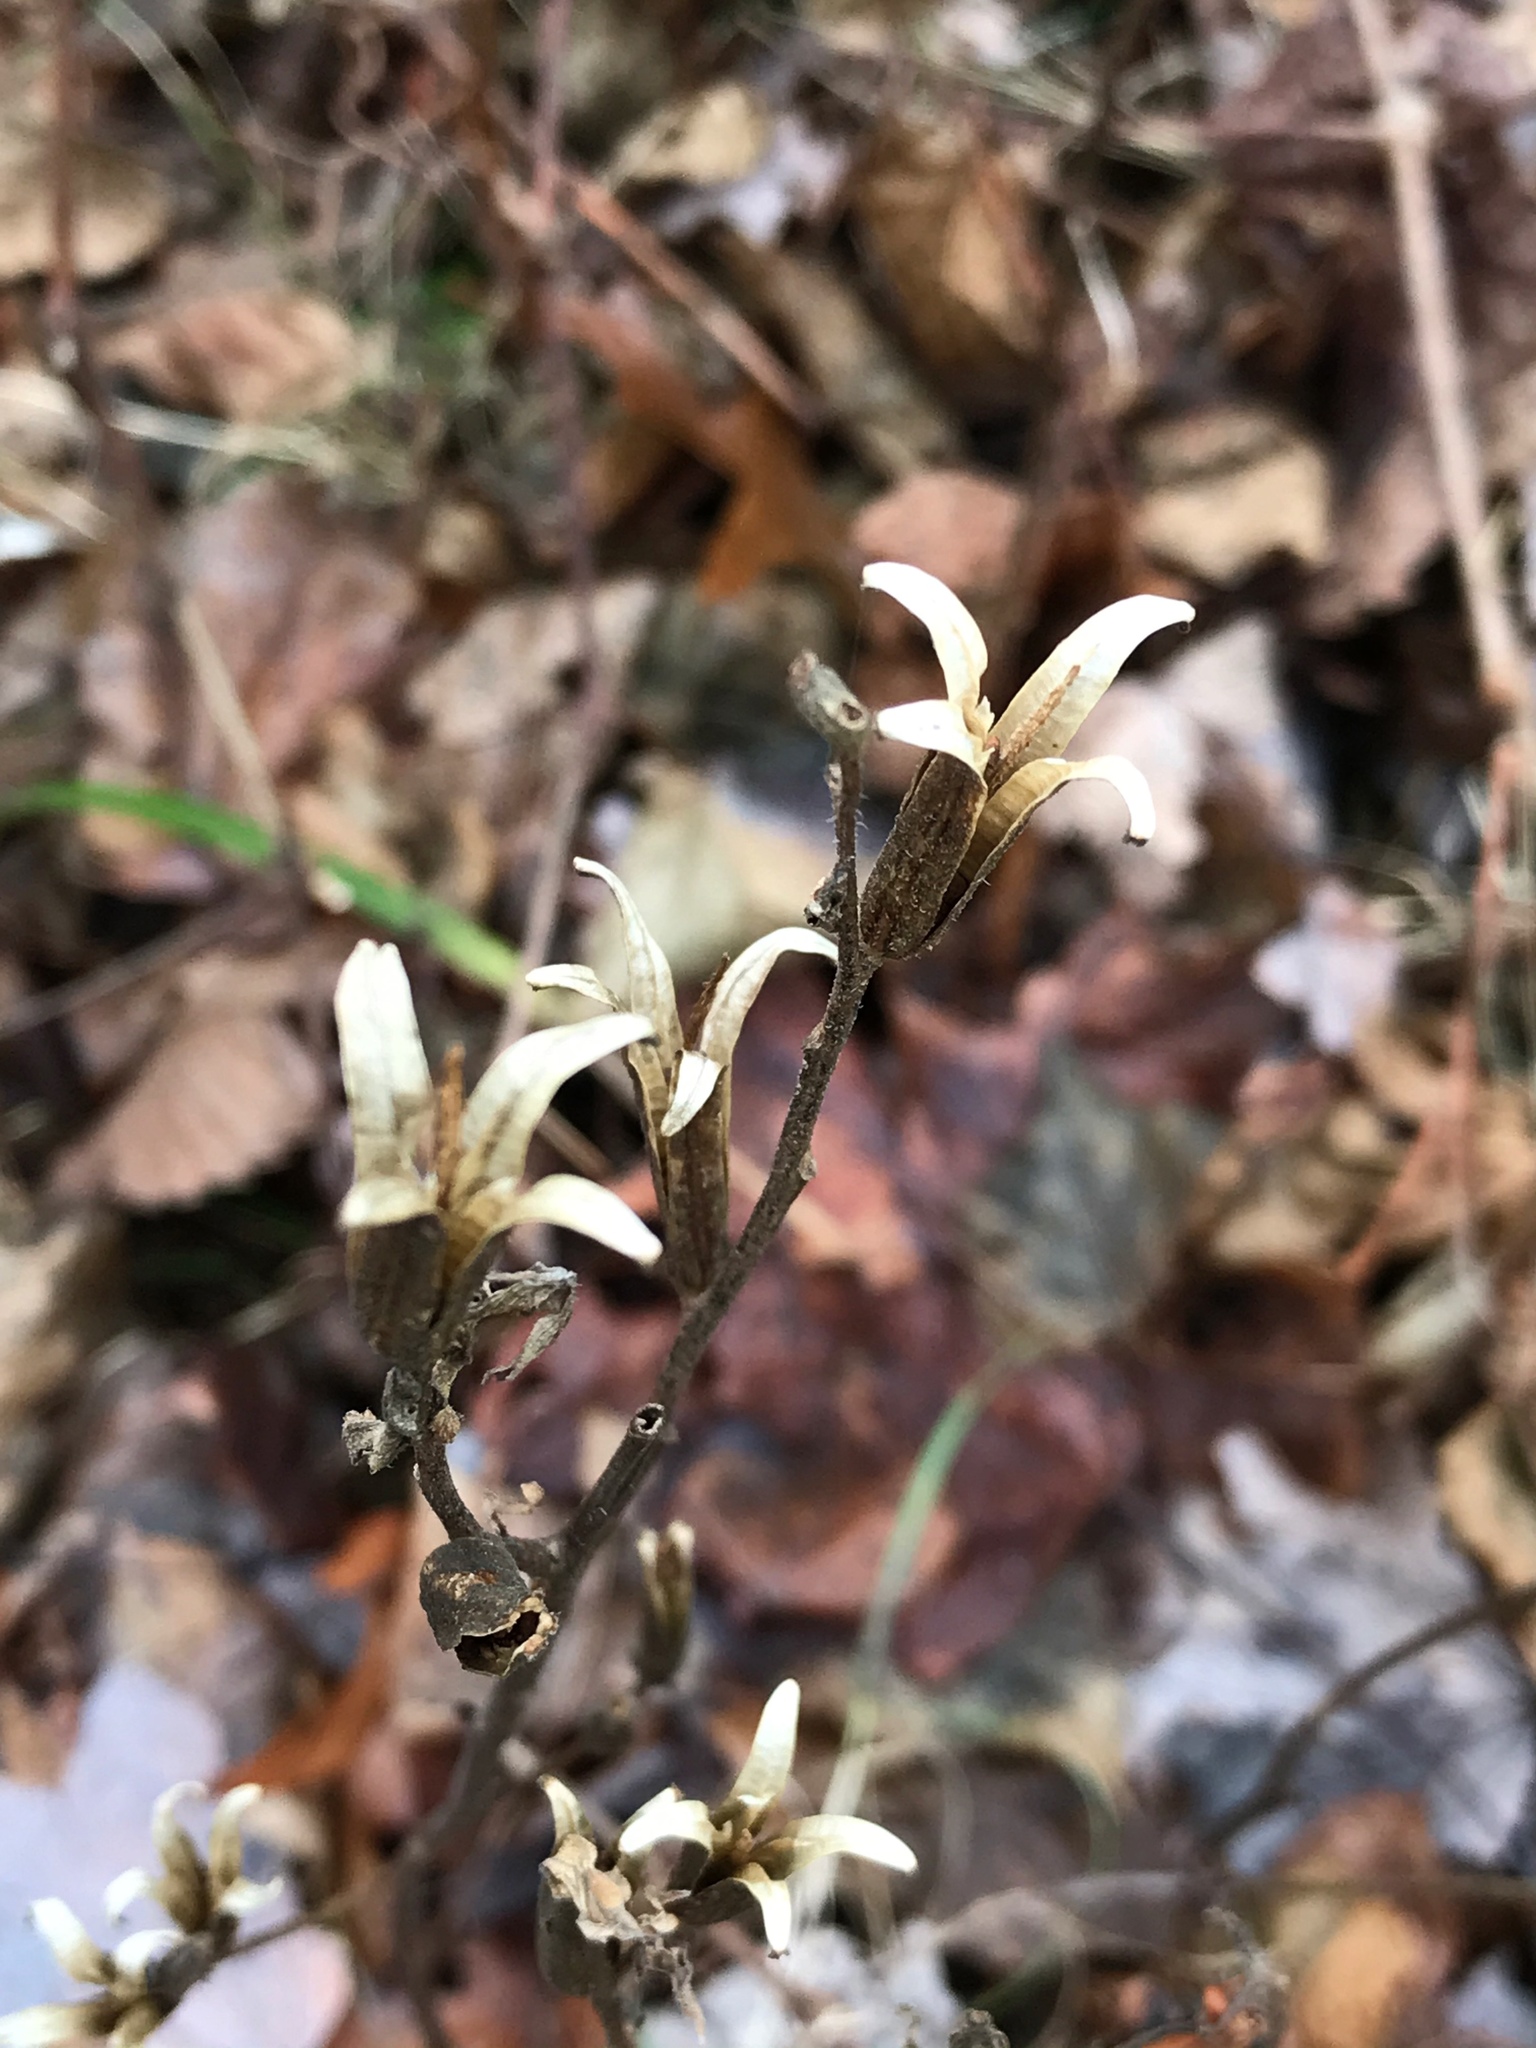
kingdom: Plantae
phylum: Tracheophyta
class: Magnoliopsida
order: Myrtales
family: Onagraceae
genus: Oenothera
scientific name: Oenothera biennis
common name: Common evening-primrose
